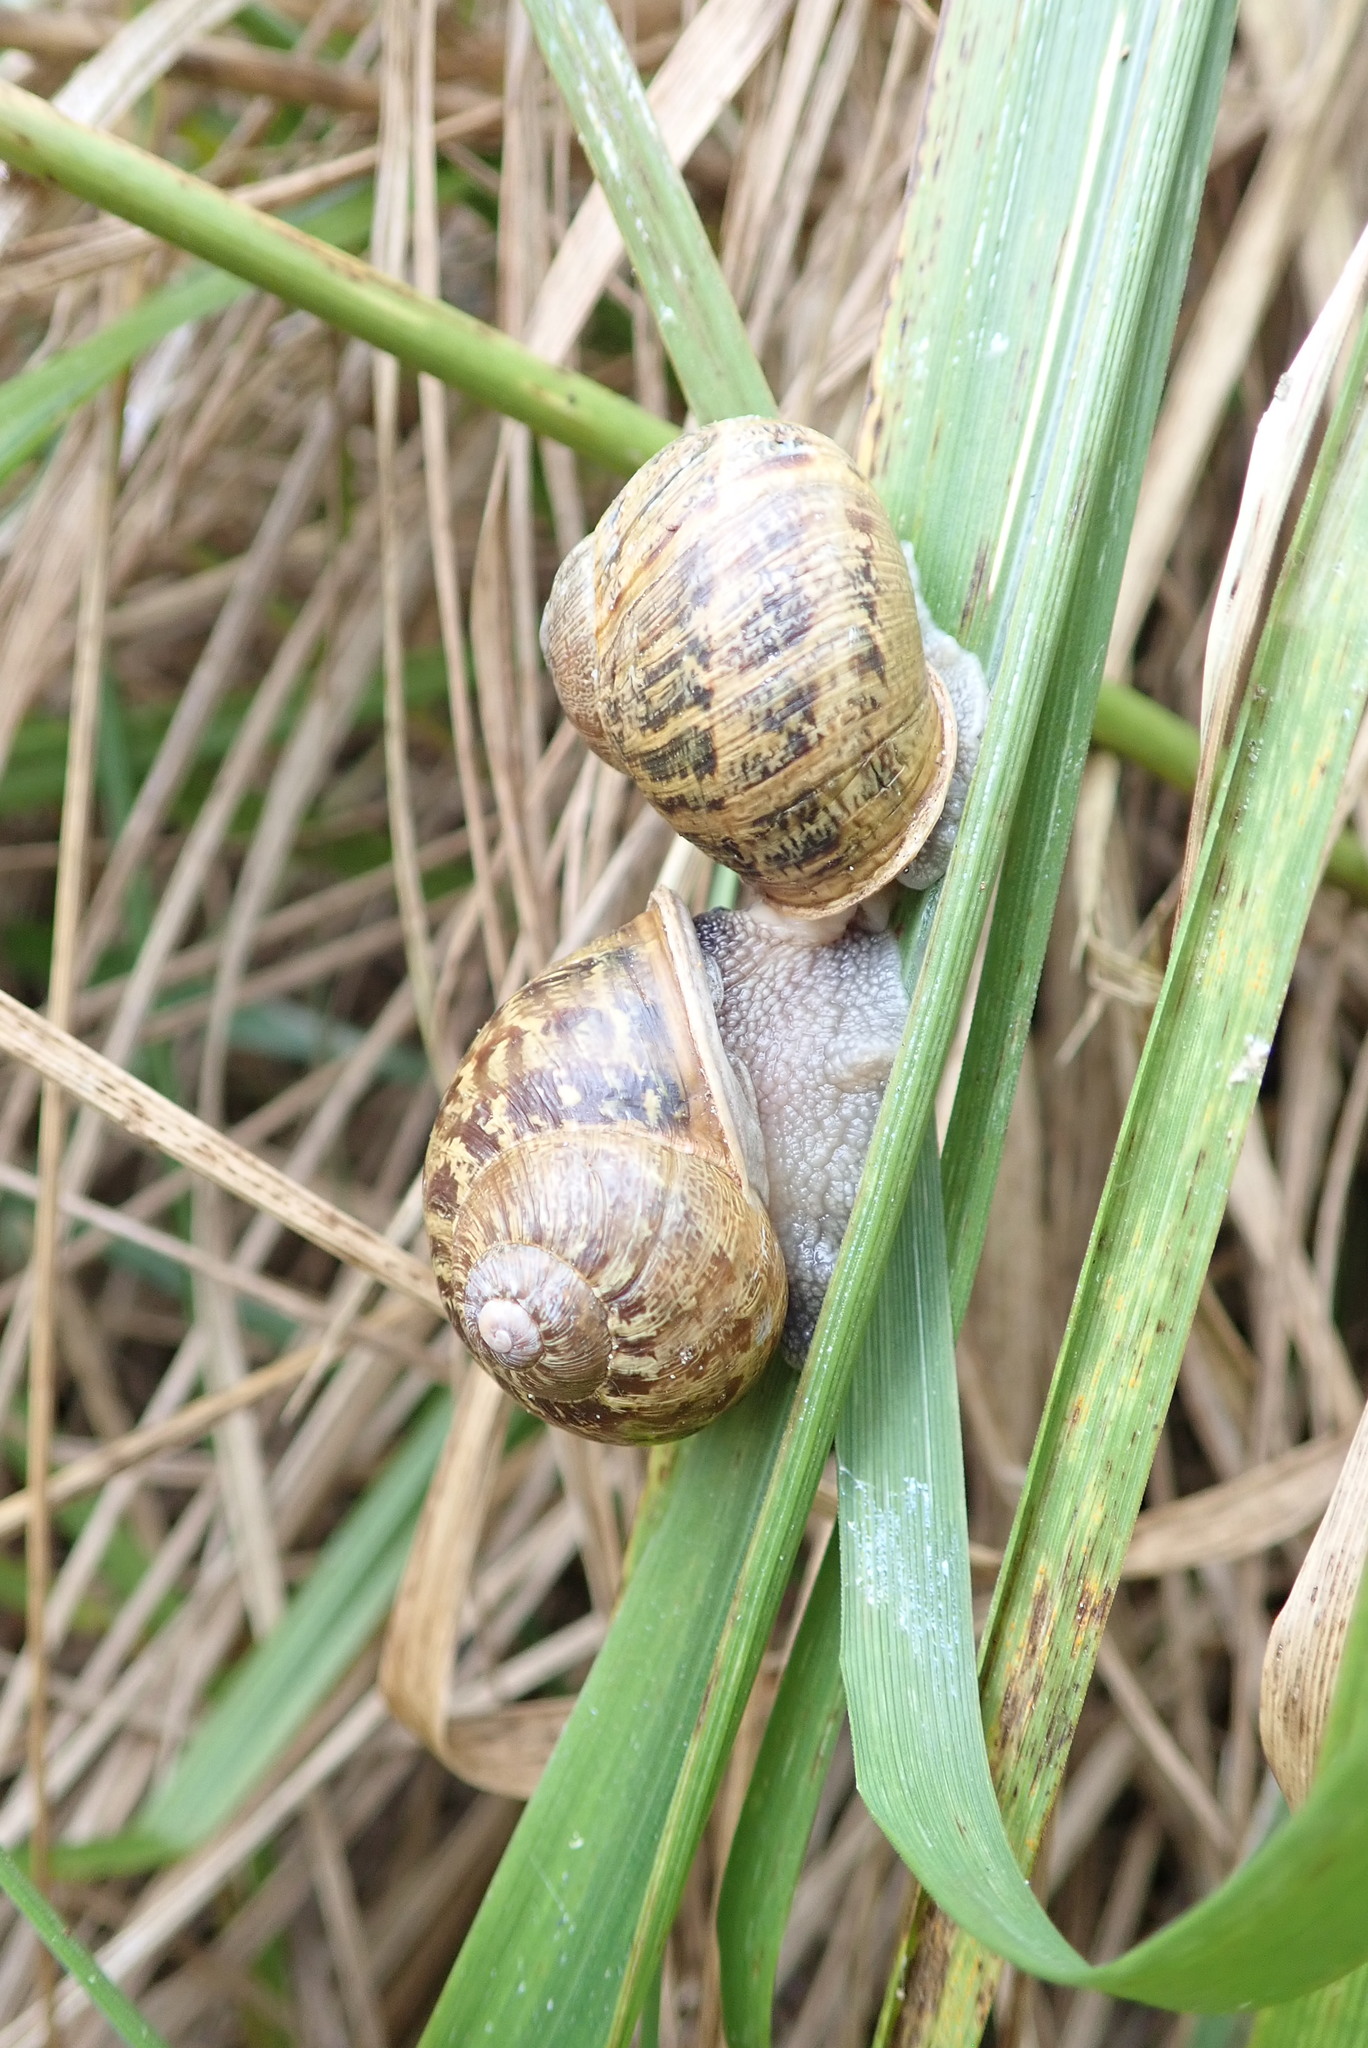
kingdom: Animalia
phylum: Mollusca
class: Gastropoda
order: Stylommatophora
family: Helicidae
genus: Cornu
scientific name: Cornu aspersum
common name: Brown garden snail
